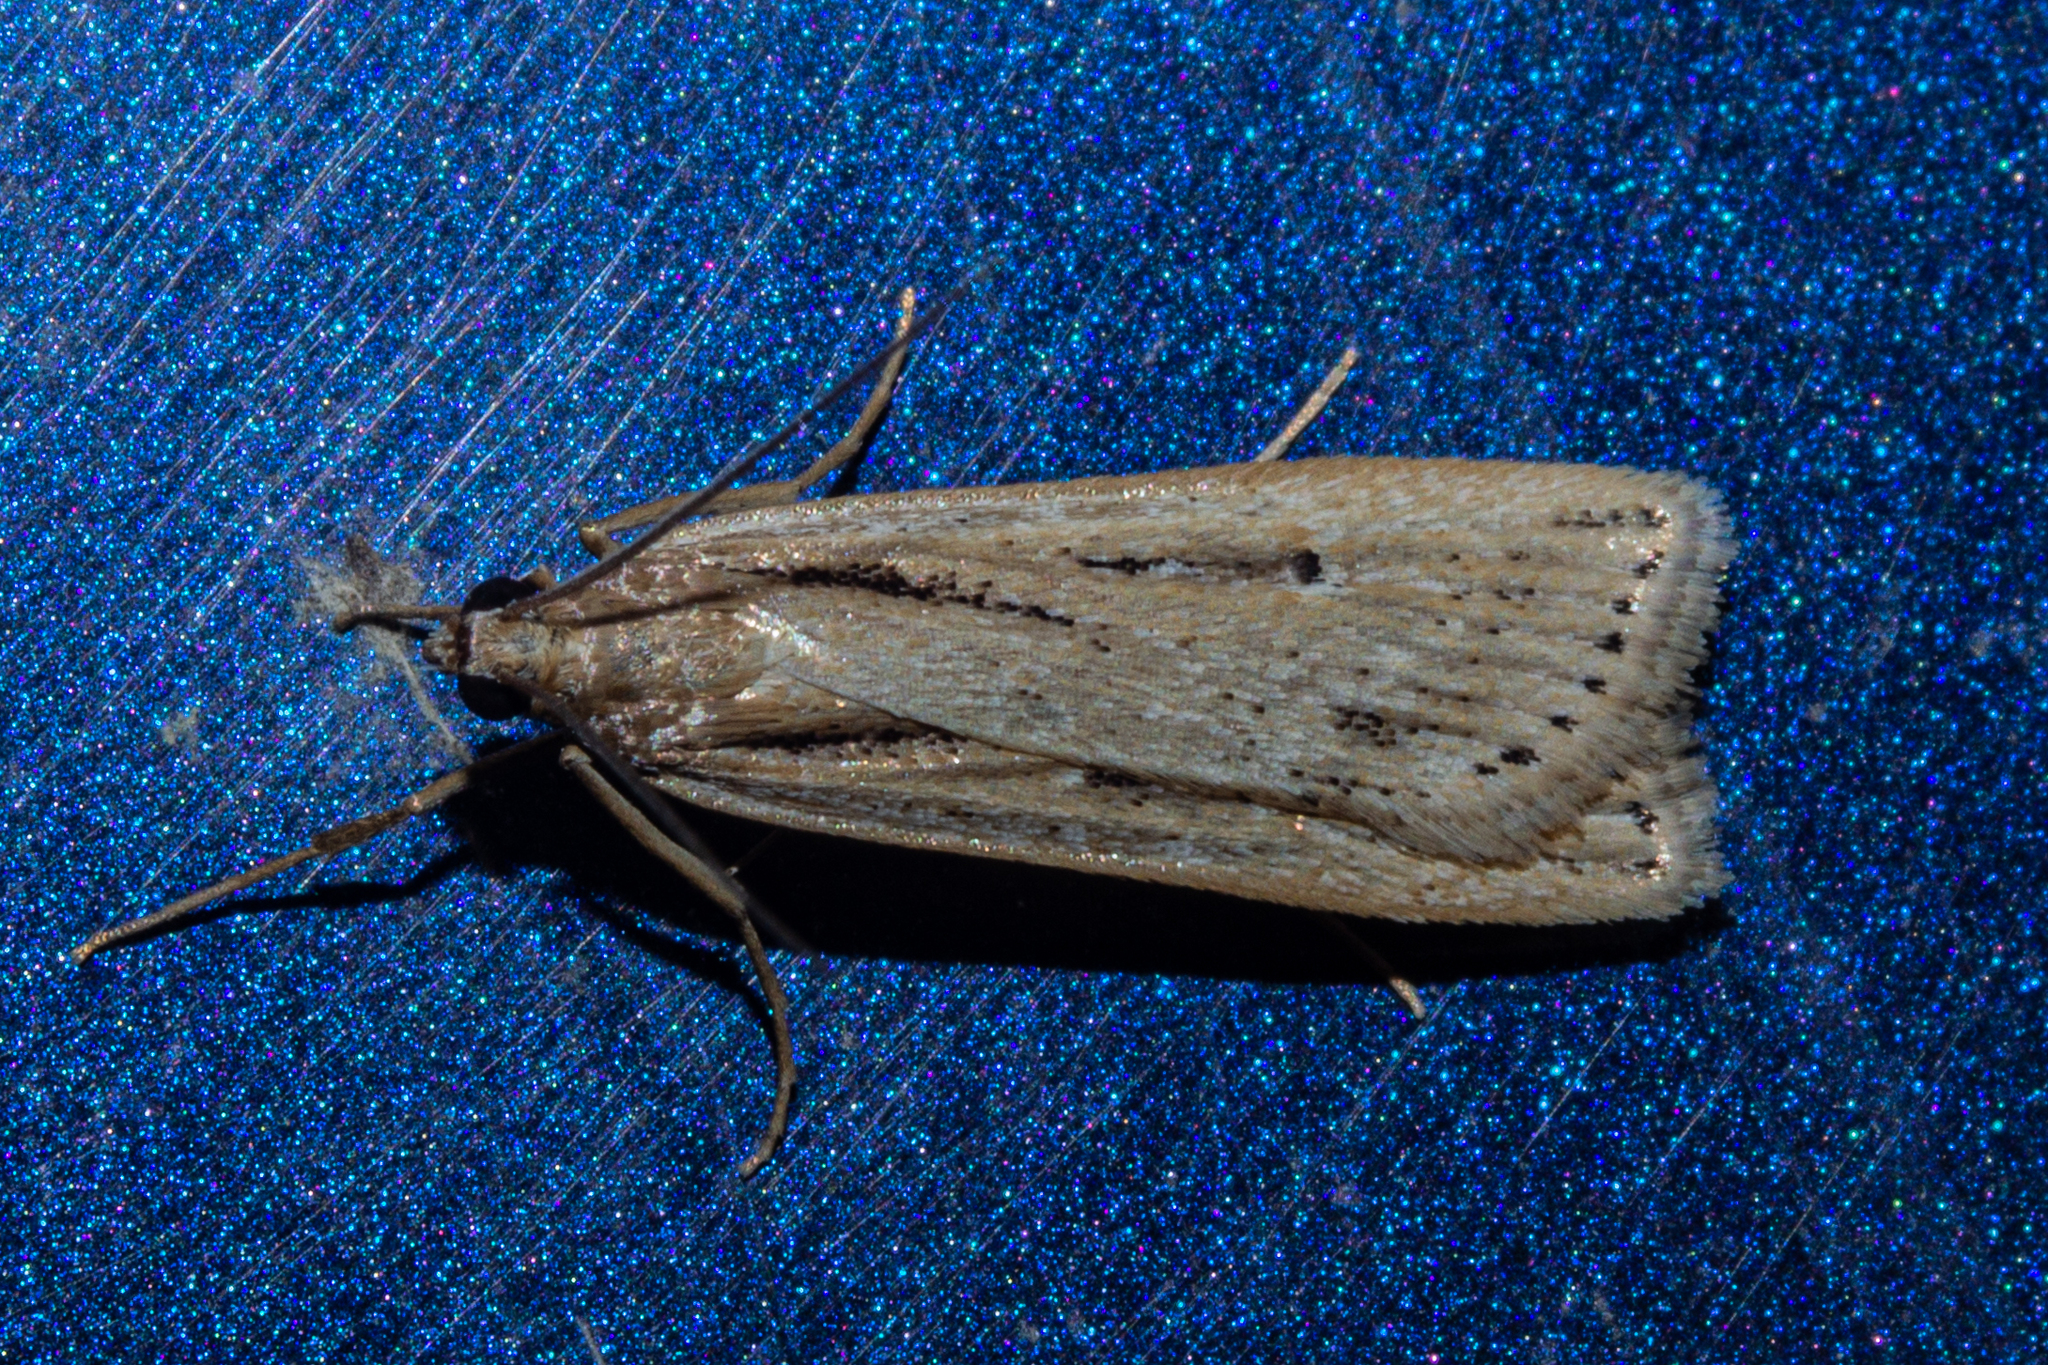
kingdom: Animalia
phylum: Arthropoda
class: Insecta
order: Lepidoptera
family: Crambidae
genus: Eudonia
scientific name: Eudonia sabulosella
